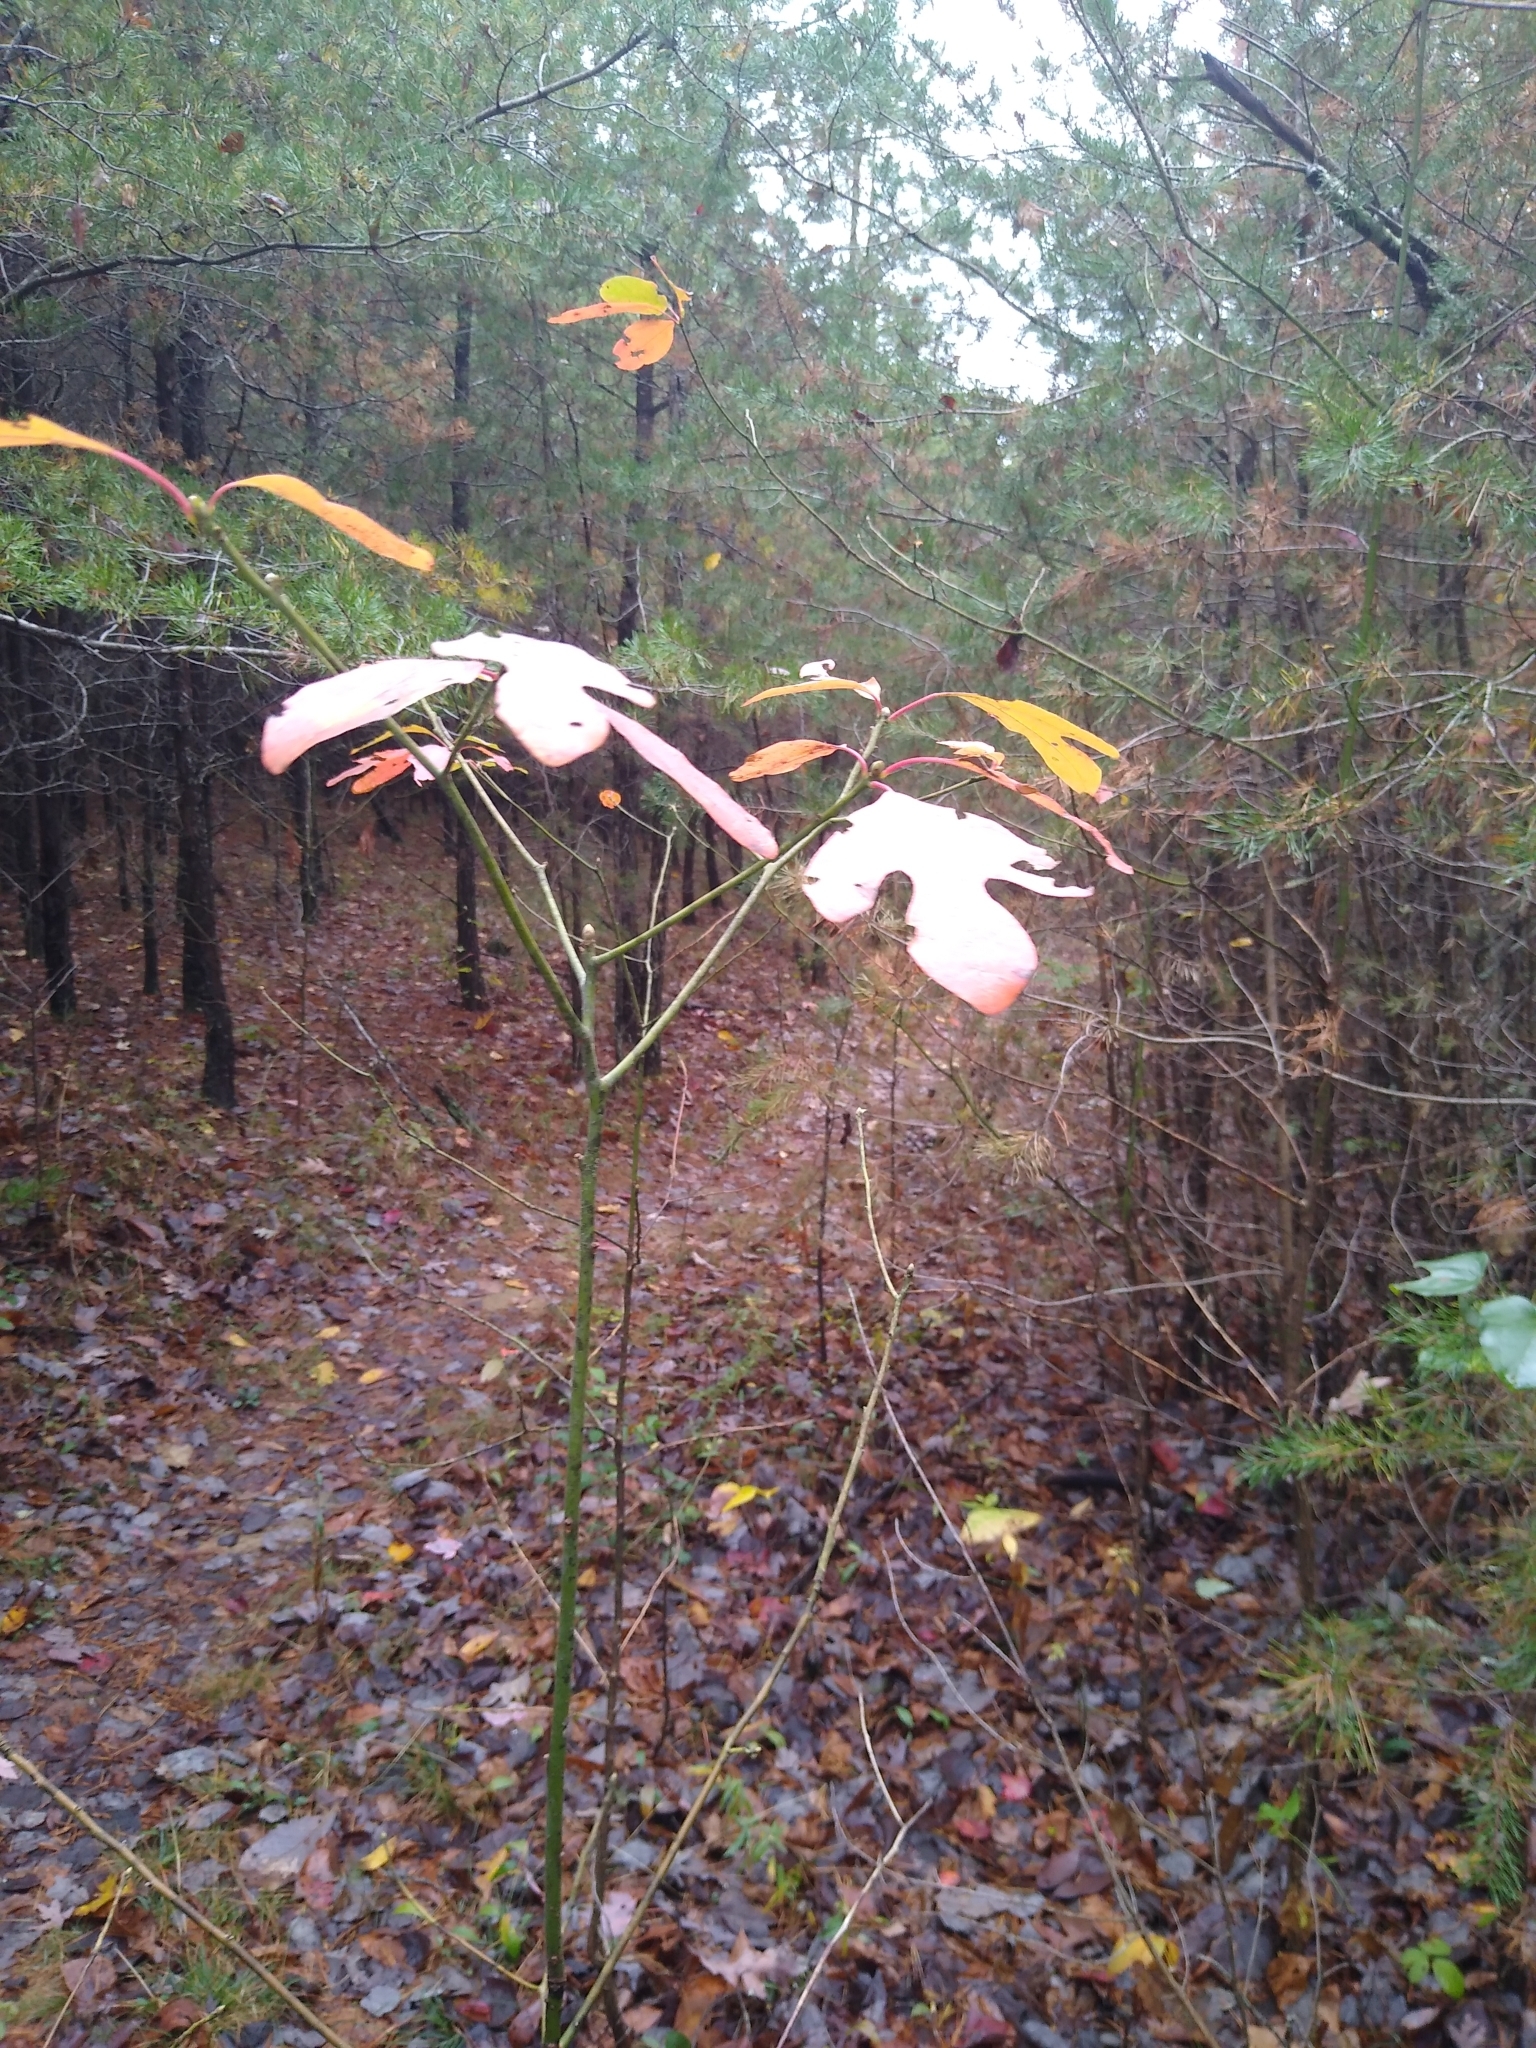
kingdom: Plantae
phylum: Tracheophyta
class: Magnoliopsida
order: Laurales
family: Lauraceae
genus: Sassafras
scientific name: Sassafras albidum
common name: Sassafras
